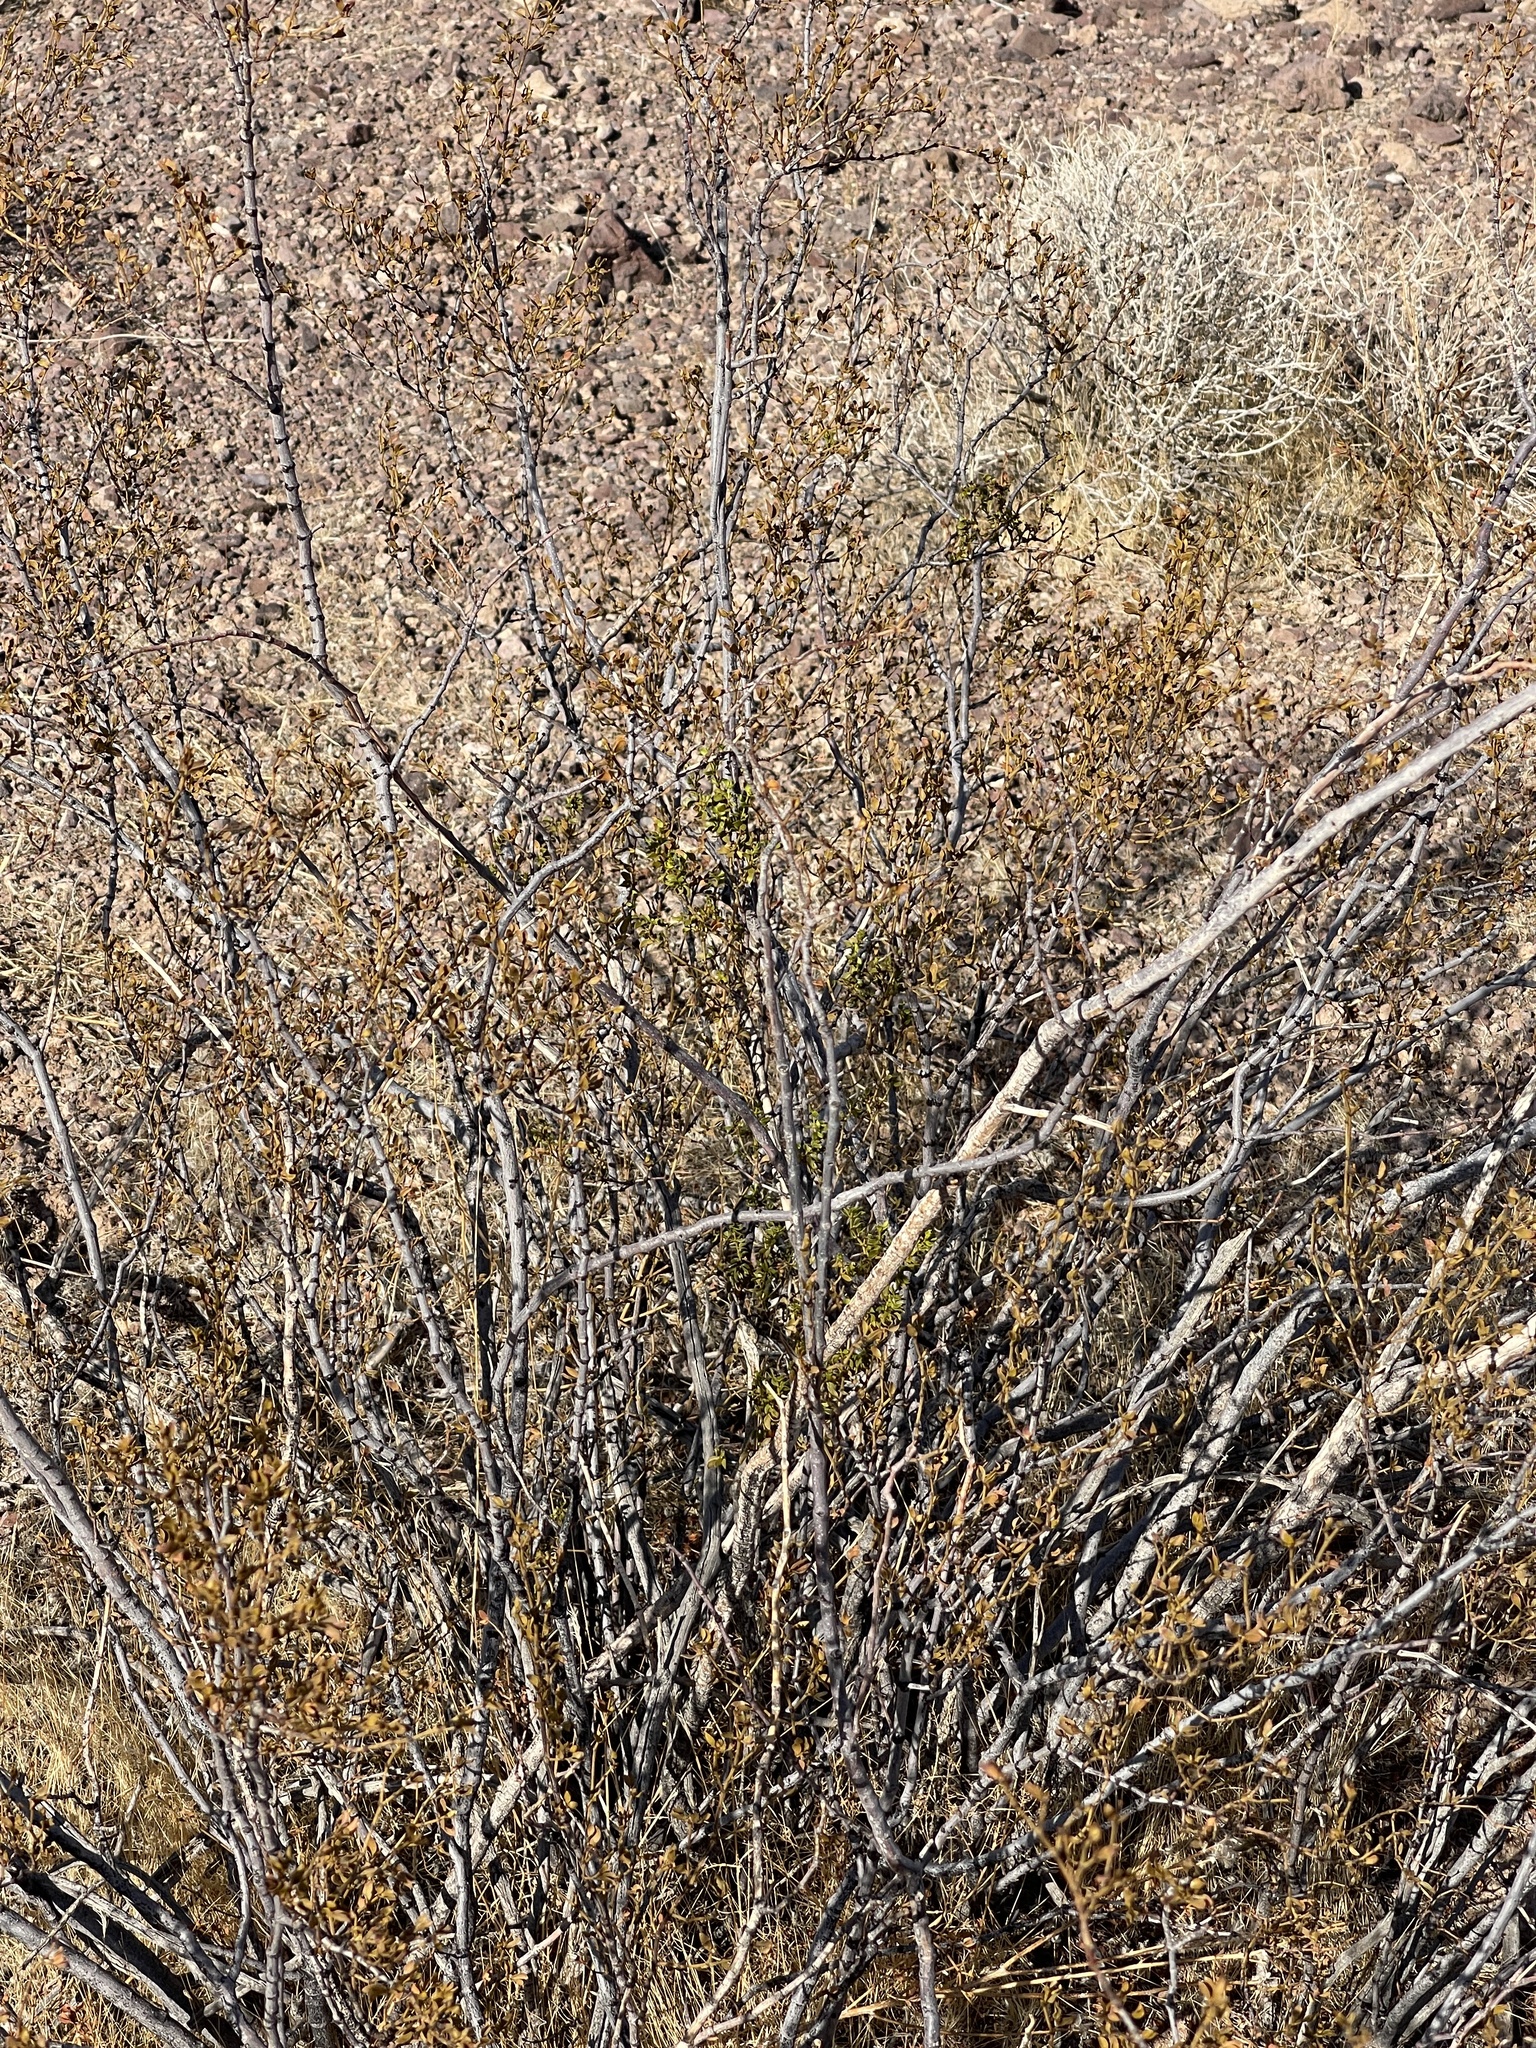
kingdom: Plantae
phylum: Tracheophyta
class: Magnoliopsida
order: Zygophyllales
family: Zygophyllaceae
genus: Larrea
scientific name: Larrea tridentata
